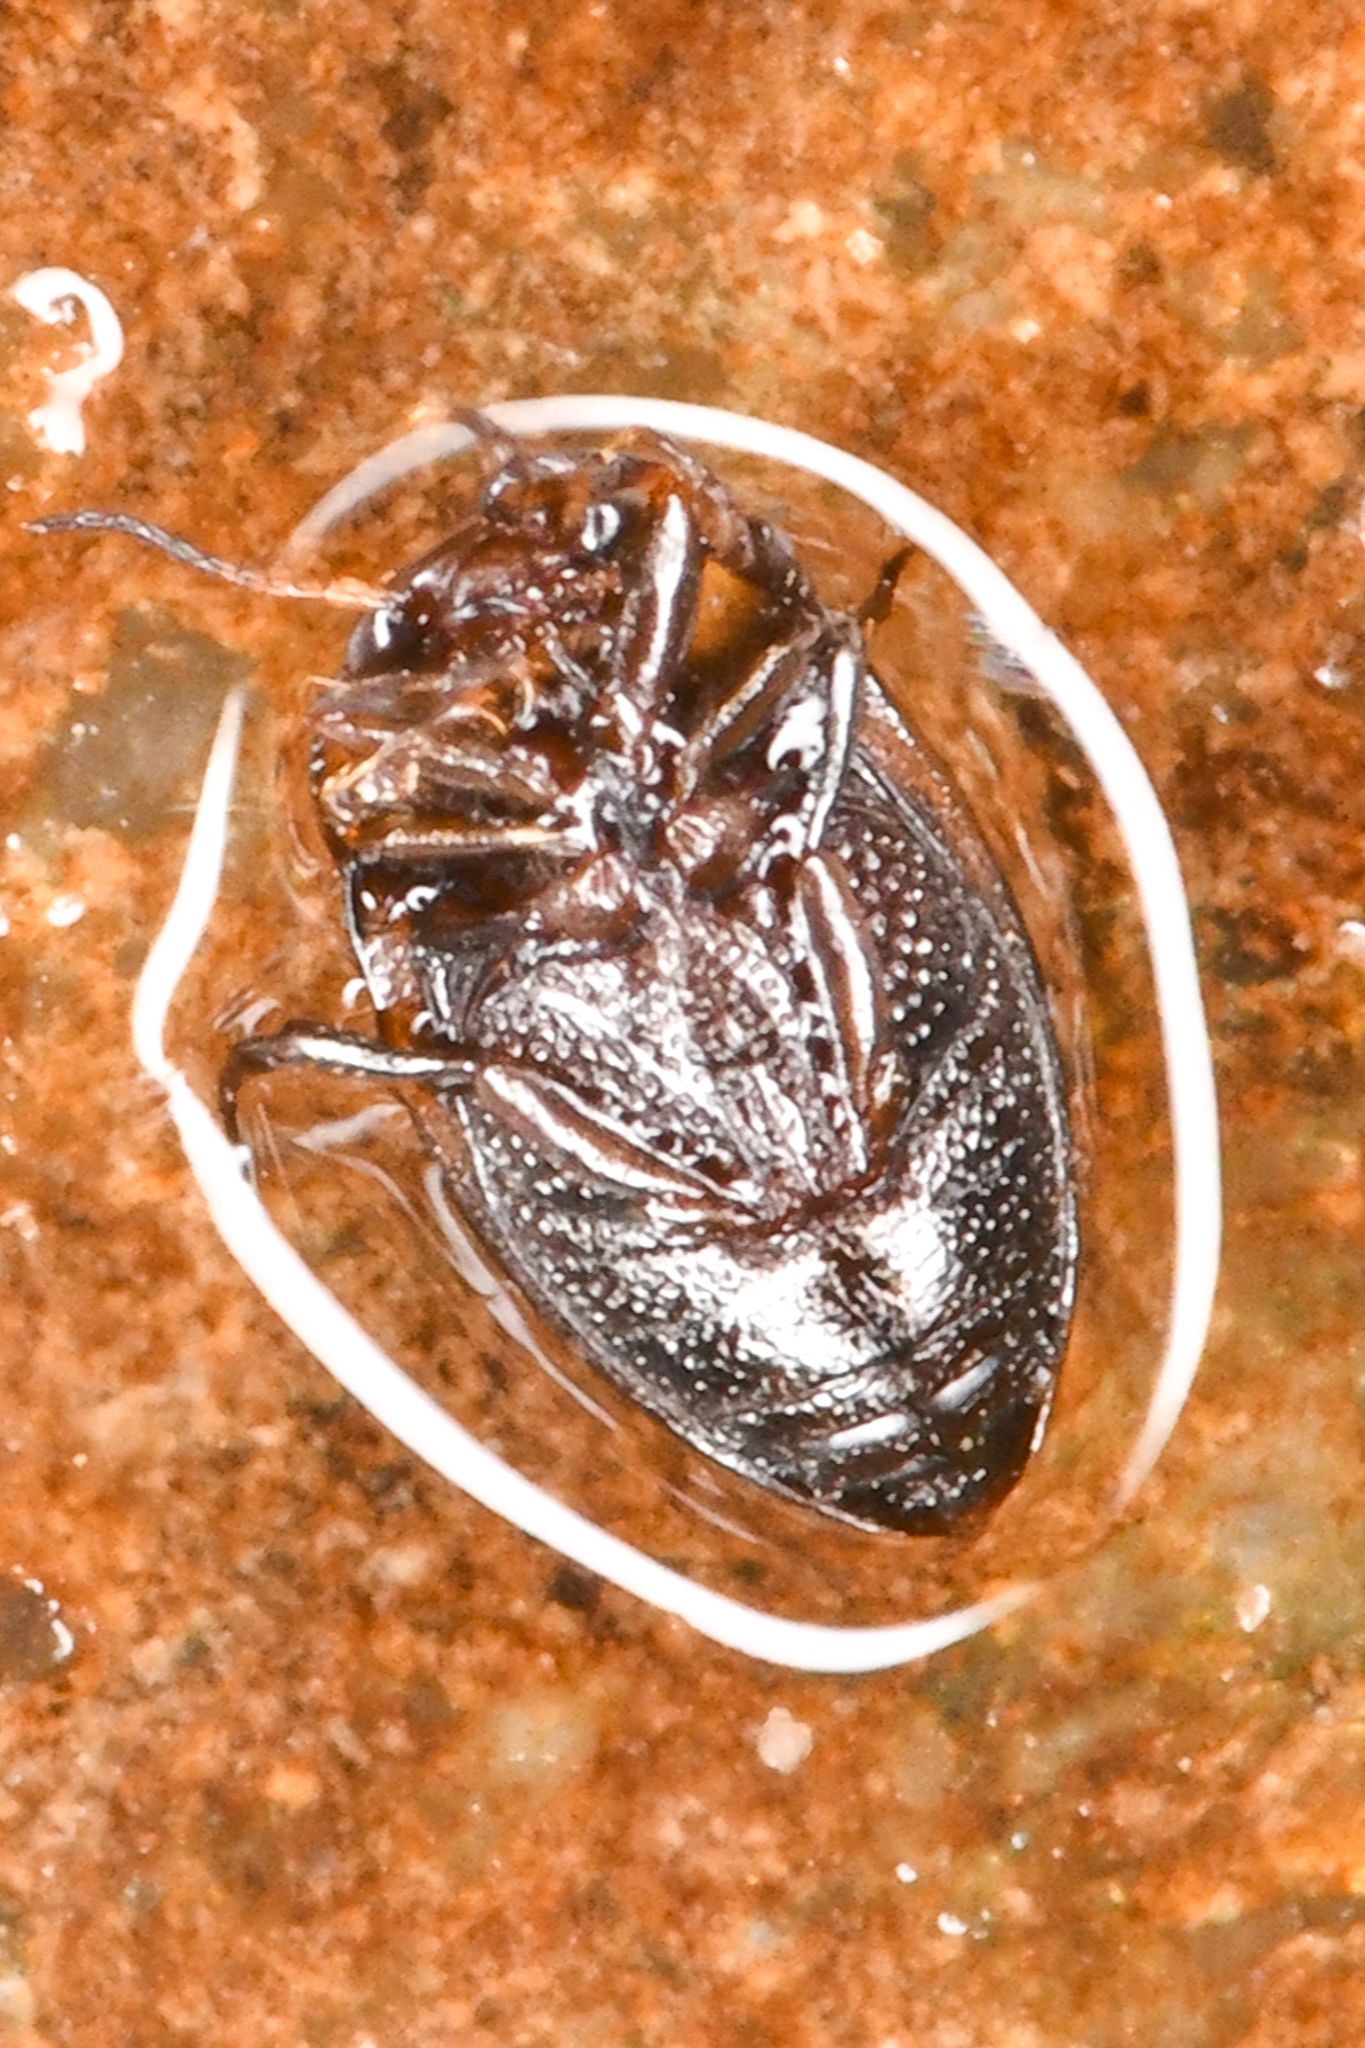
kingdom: Animalia
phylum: Arthropoda
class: Insecta
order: Coleoptera
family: Dytiscidae
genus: Neoclypeodytes
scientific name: Neoclypeodytes plicipennis
